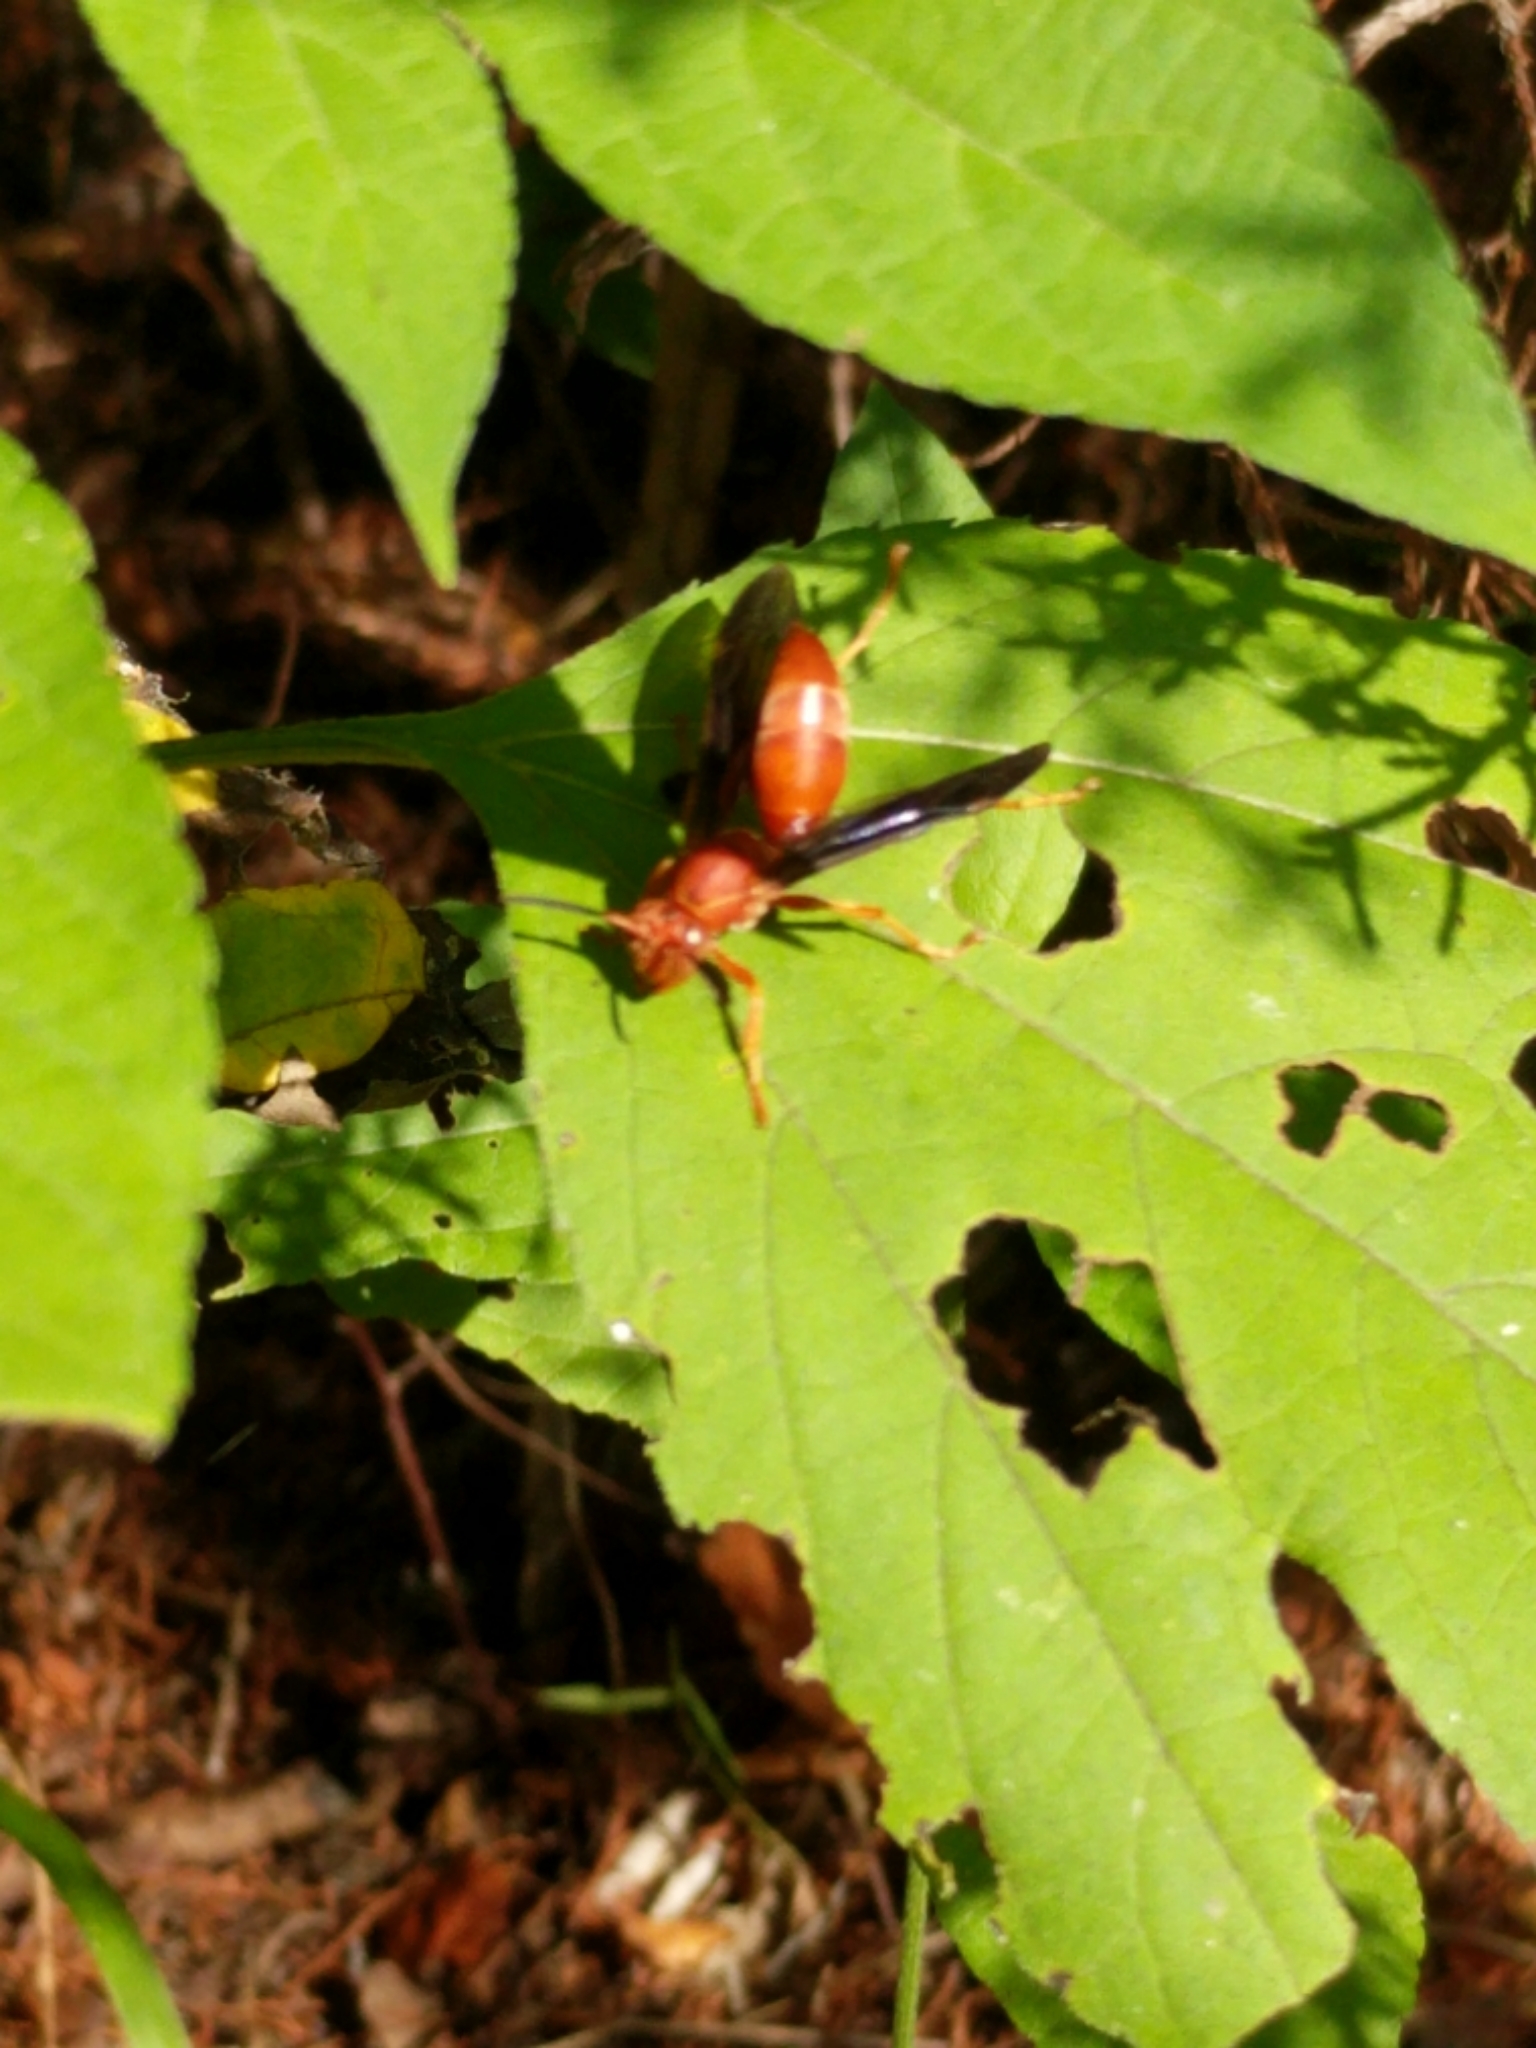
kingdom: Animalia
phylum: Arthropoda
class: Insecta
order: Hymenoptera
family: Eumenidae
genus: Polistes
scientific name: Polistes
